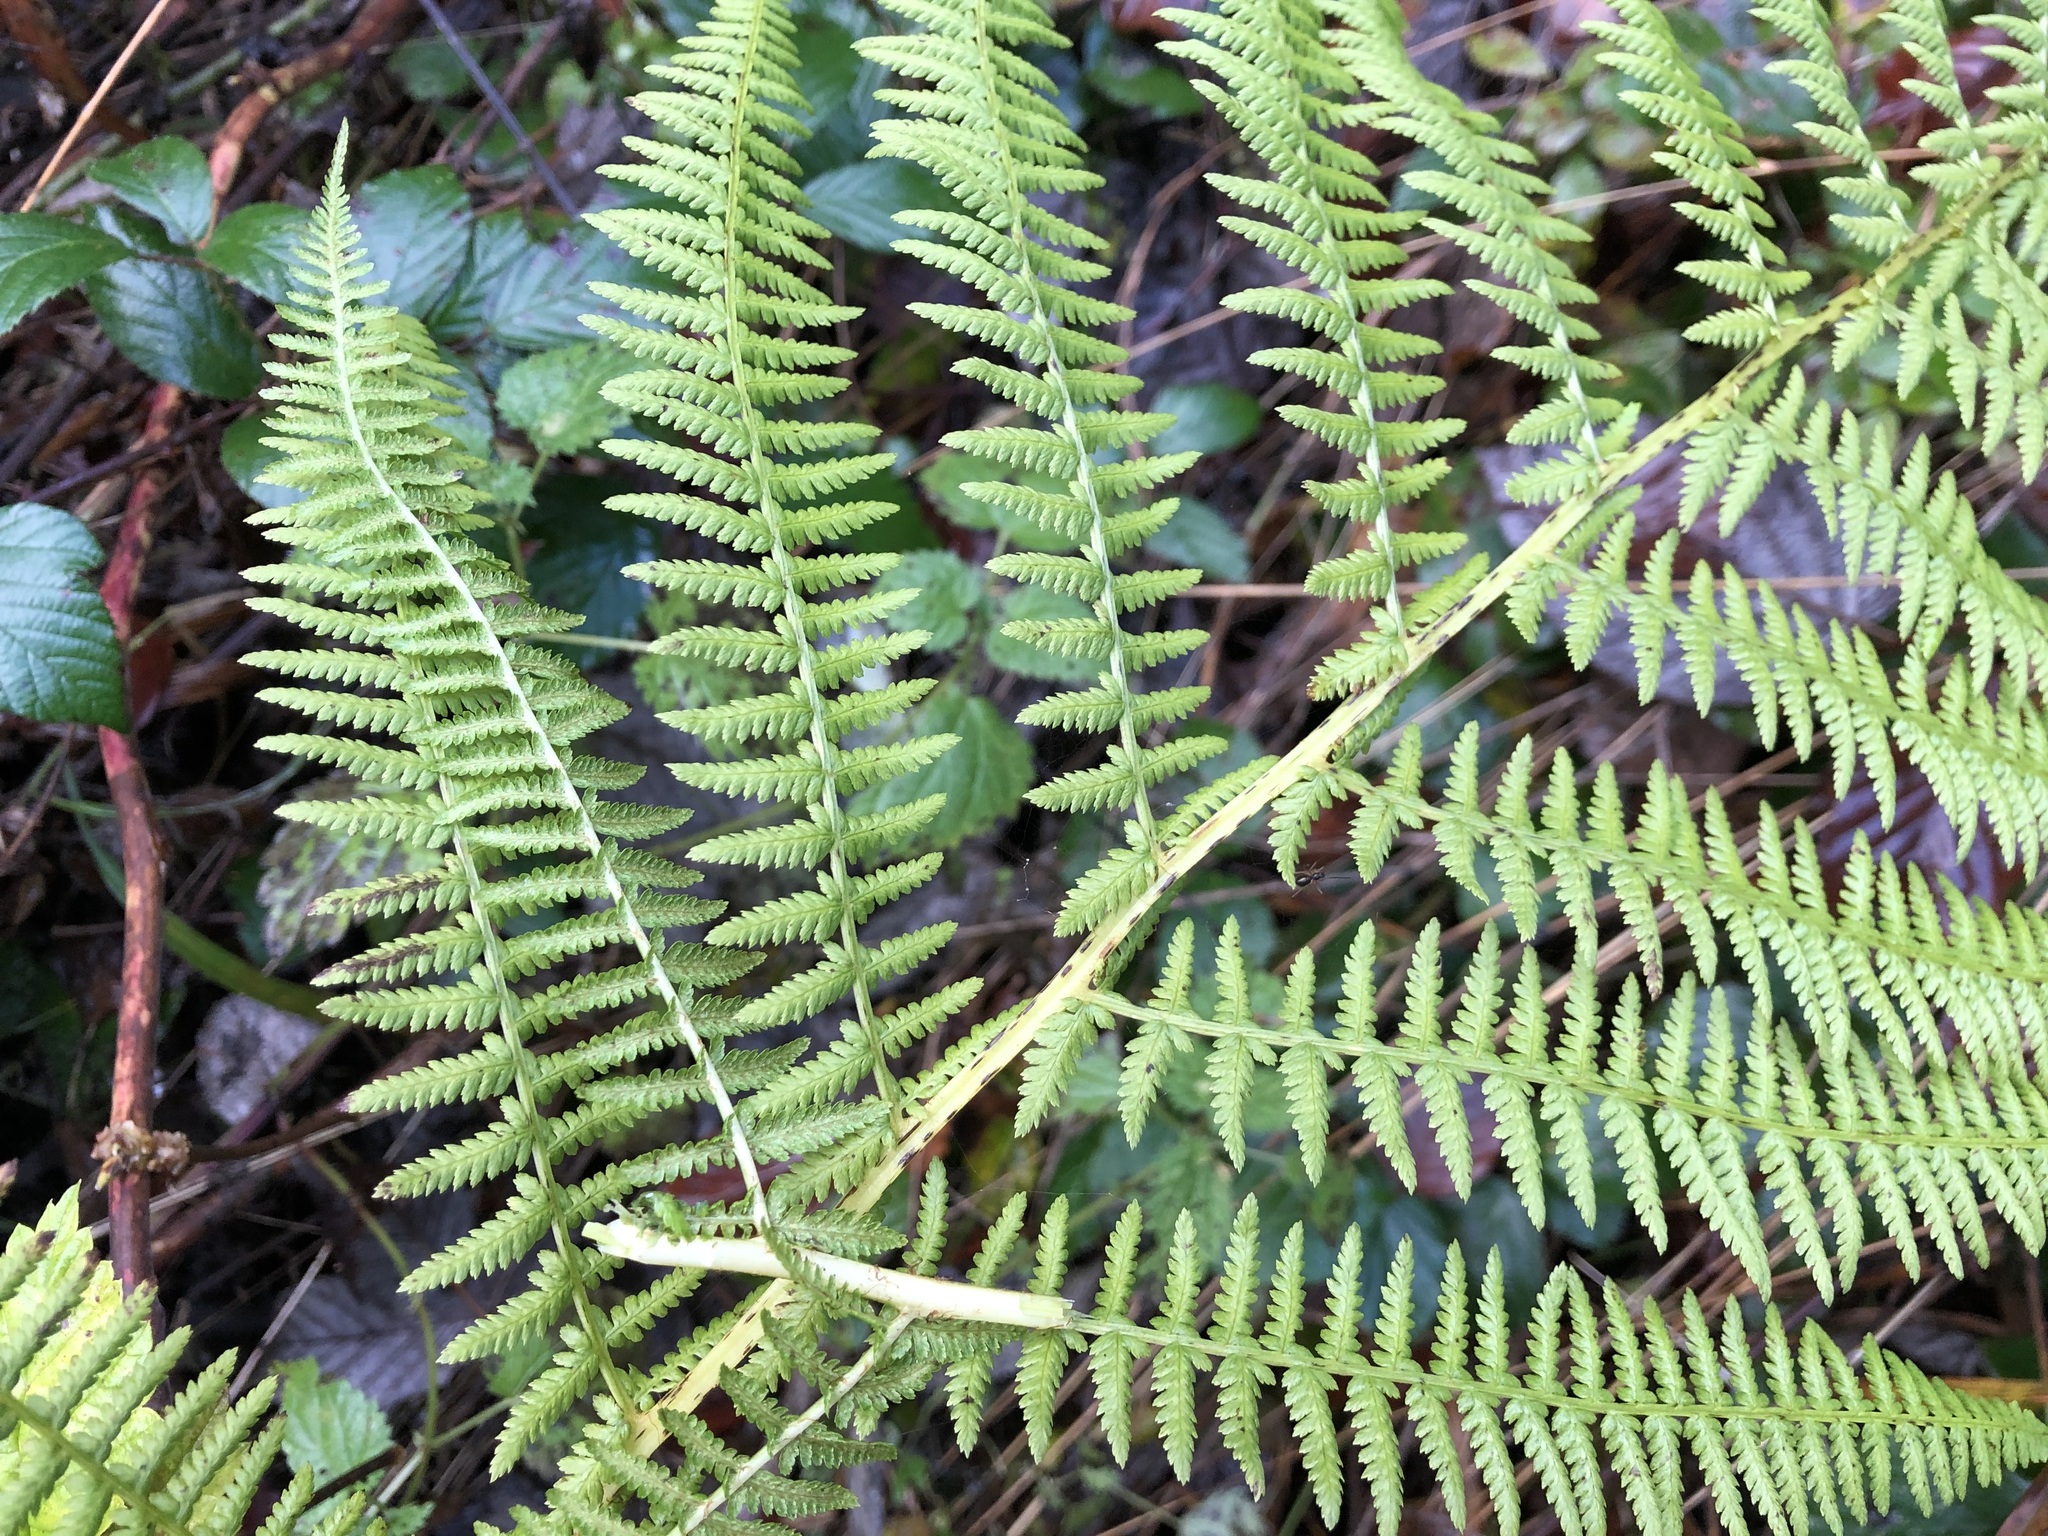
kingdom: Plantae
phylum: Tracheophyta
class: Polypodiopsida
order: Polypodiales
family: Athyriaceae
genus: Athyrium
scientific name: Athyrium filix-femina
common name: Lady fern
